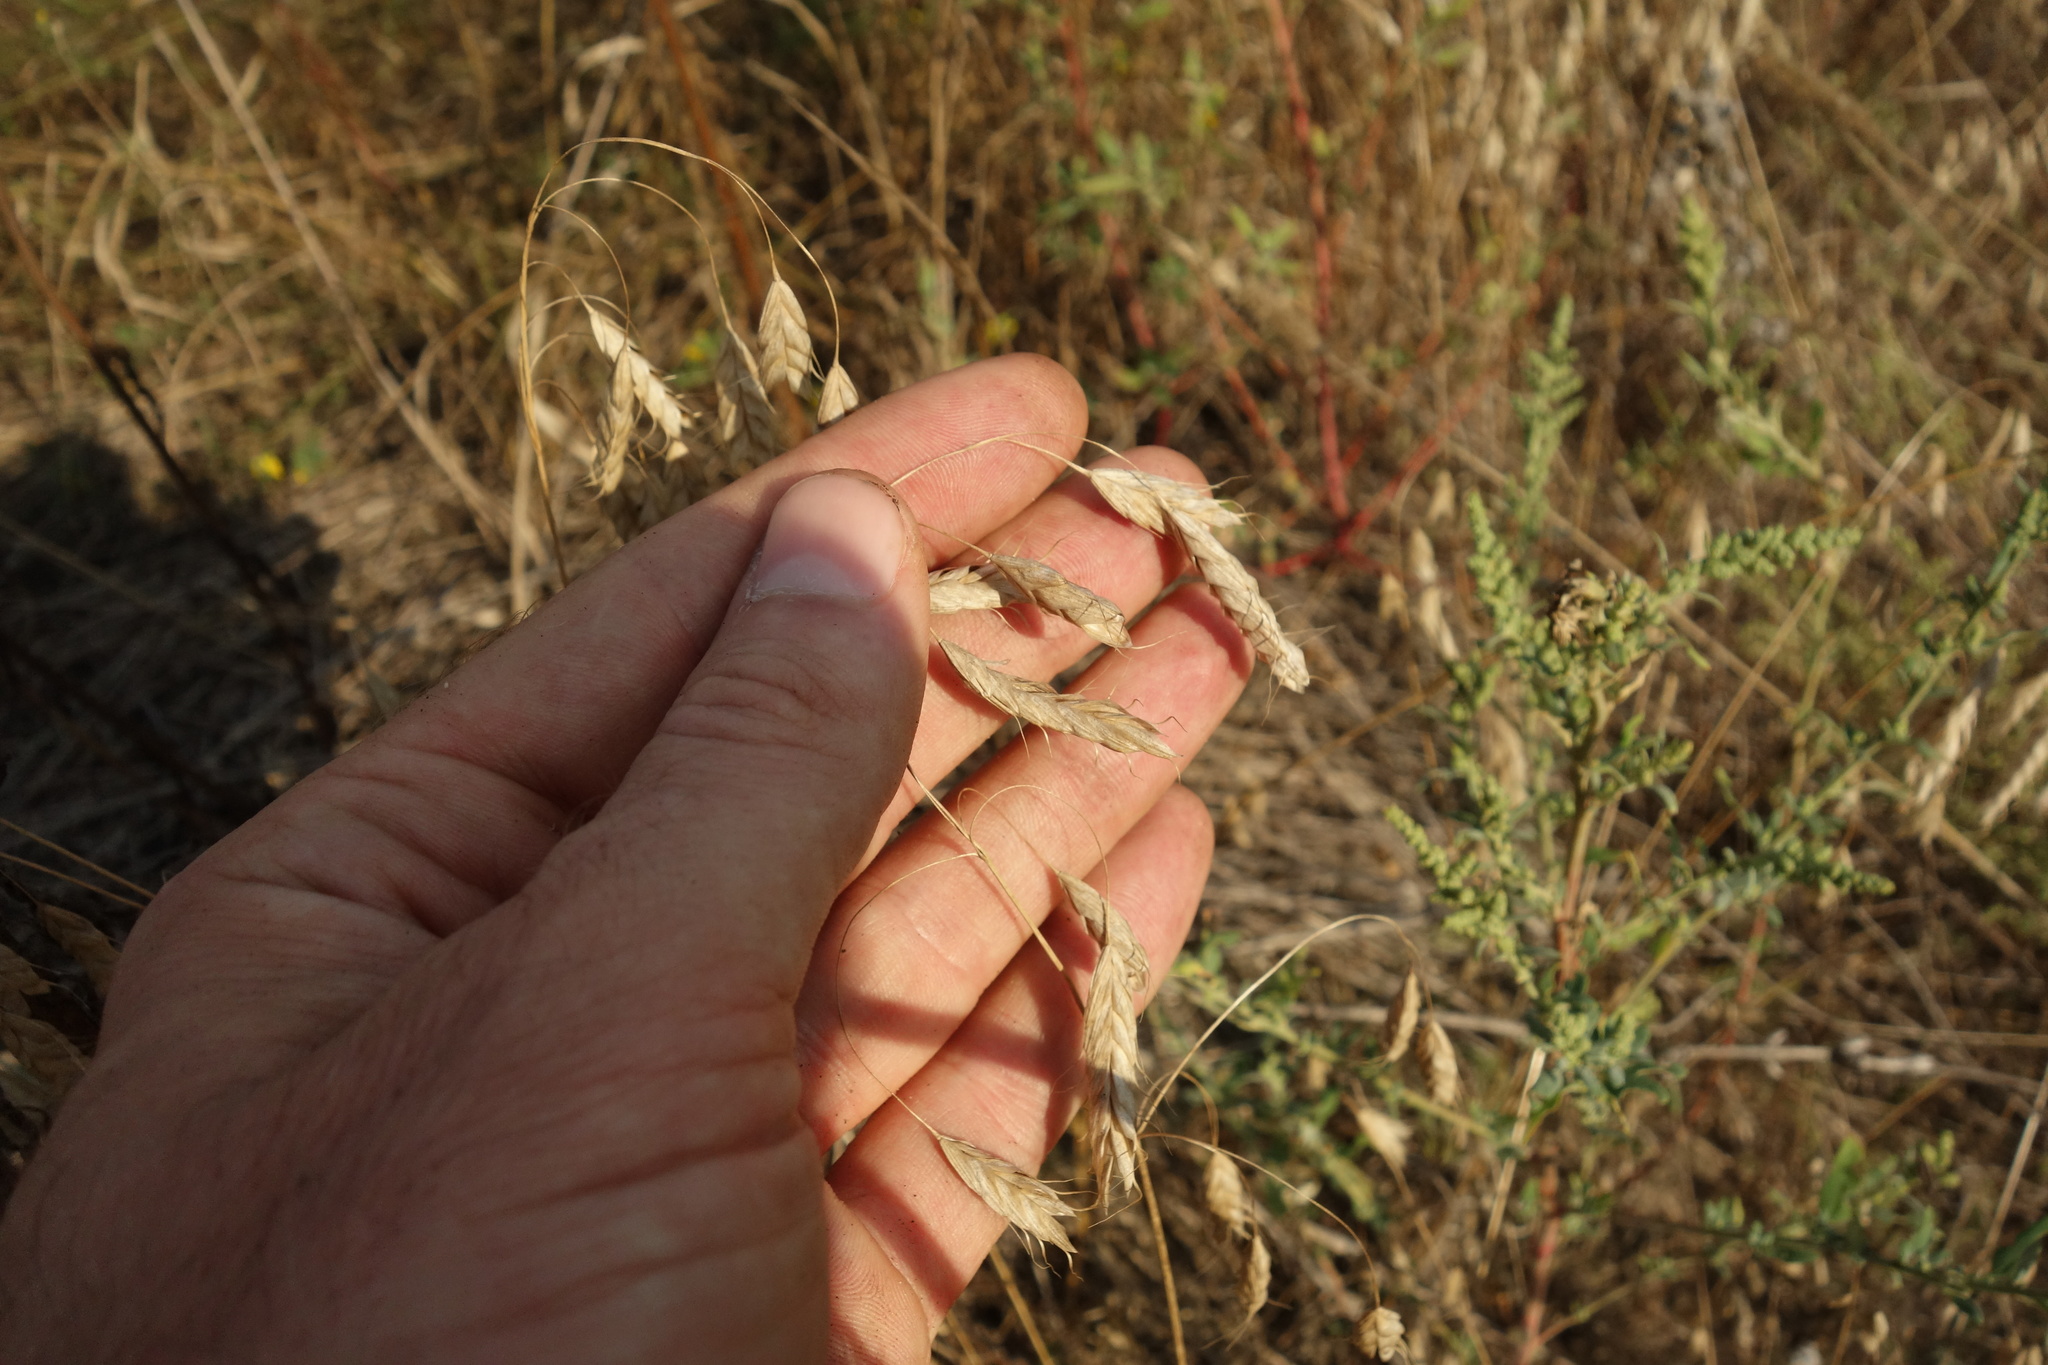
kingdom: Plantae
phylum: Tracheophyta
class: Liliopsida
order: Poales
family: Poaceae
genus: Bromus
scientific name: Bromus squarrosus
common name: Corn brome
